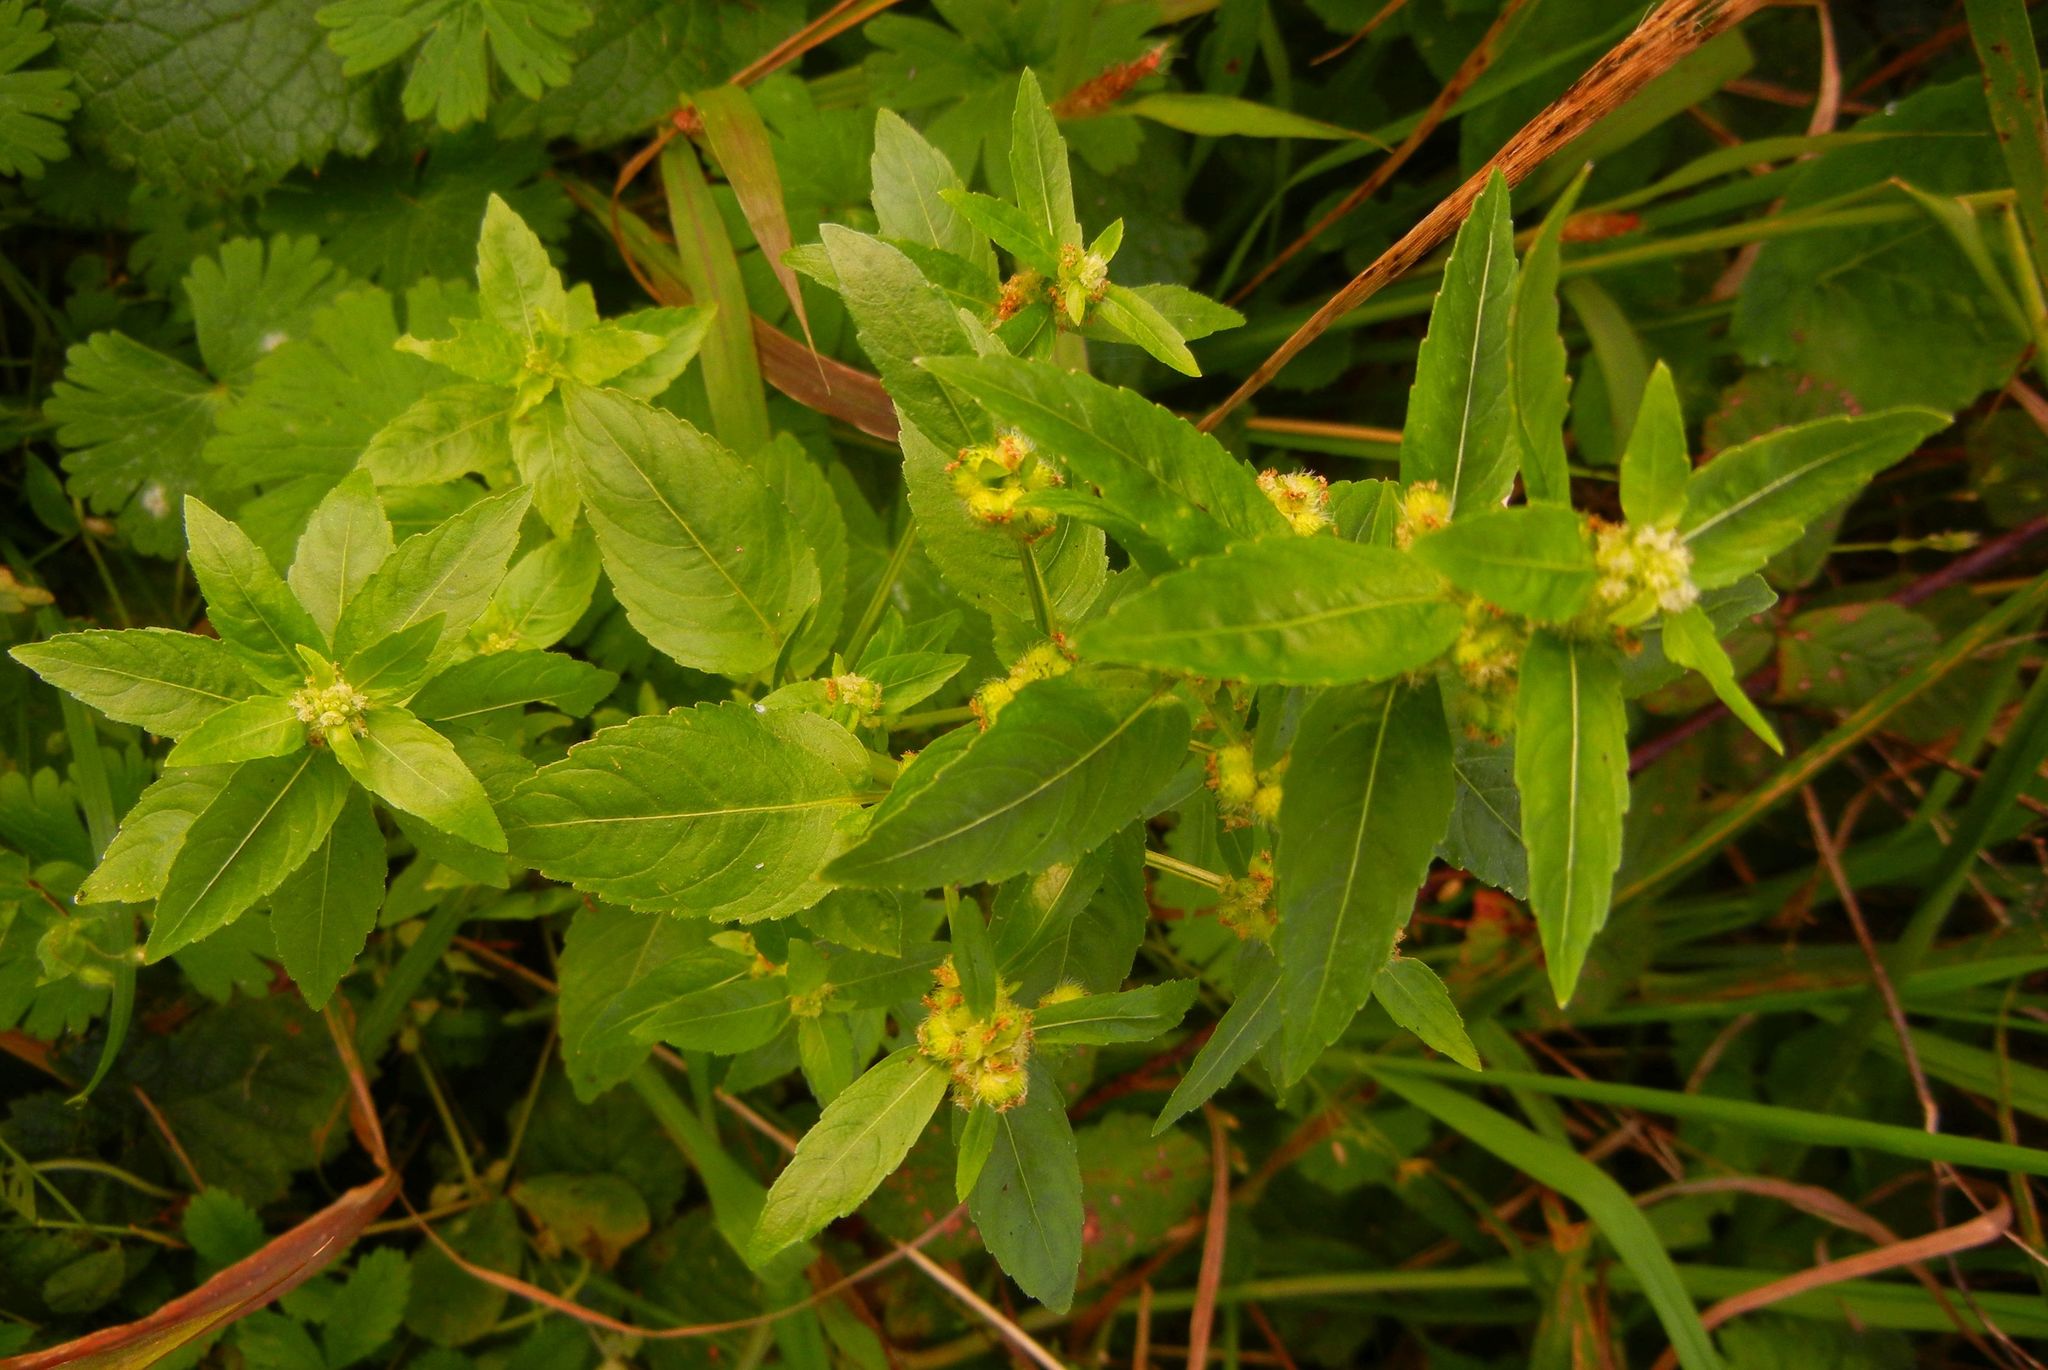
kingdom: Plantae
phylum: Tracheophyta
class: Magnoliopsida
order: Malpighiales
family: Euphorbiaceae
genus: Mercurialis
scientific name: Mercurialis annua
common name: Annual mercury
